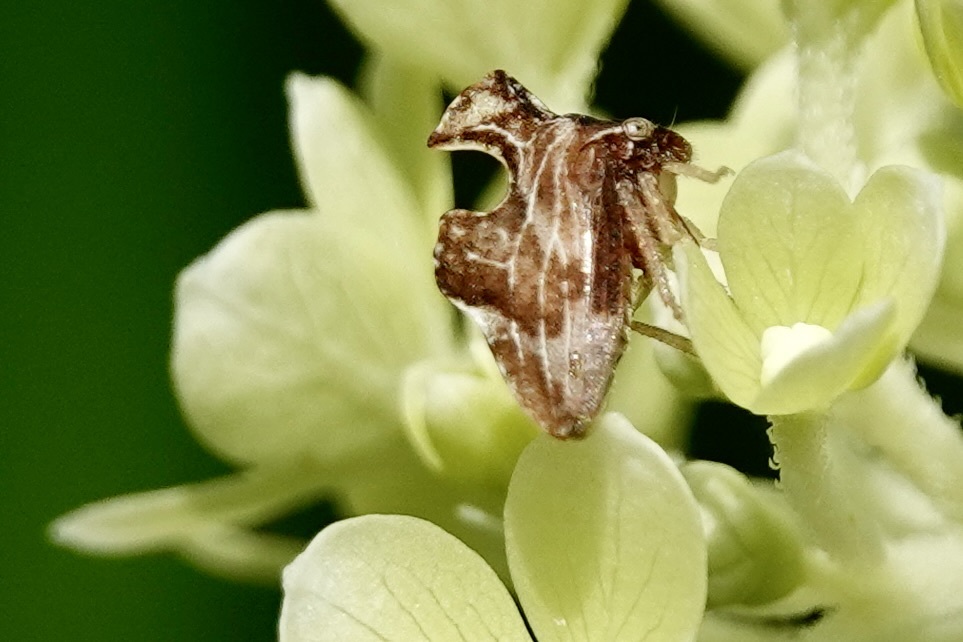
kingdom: Animalia
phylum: Arthropoda
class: Insecta
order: Hemiptera
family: Membracidae
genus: Entylia
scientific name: Entylia carinata
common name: Keeled treehopper
